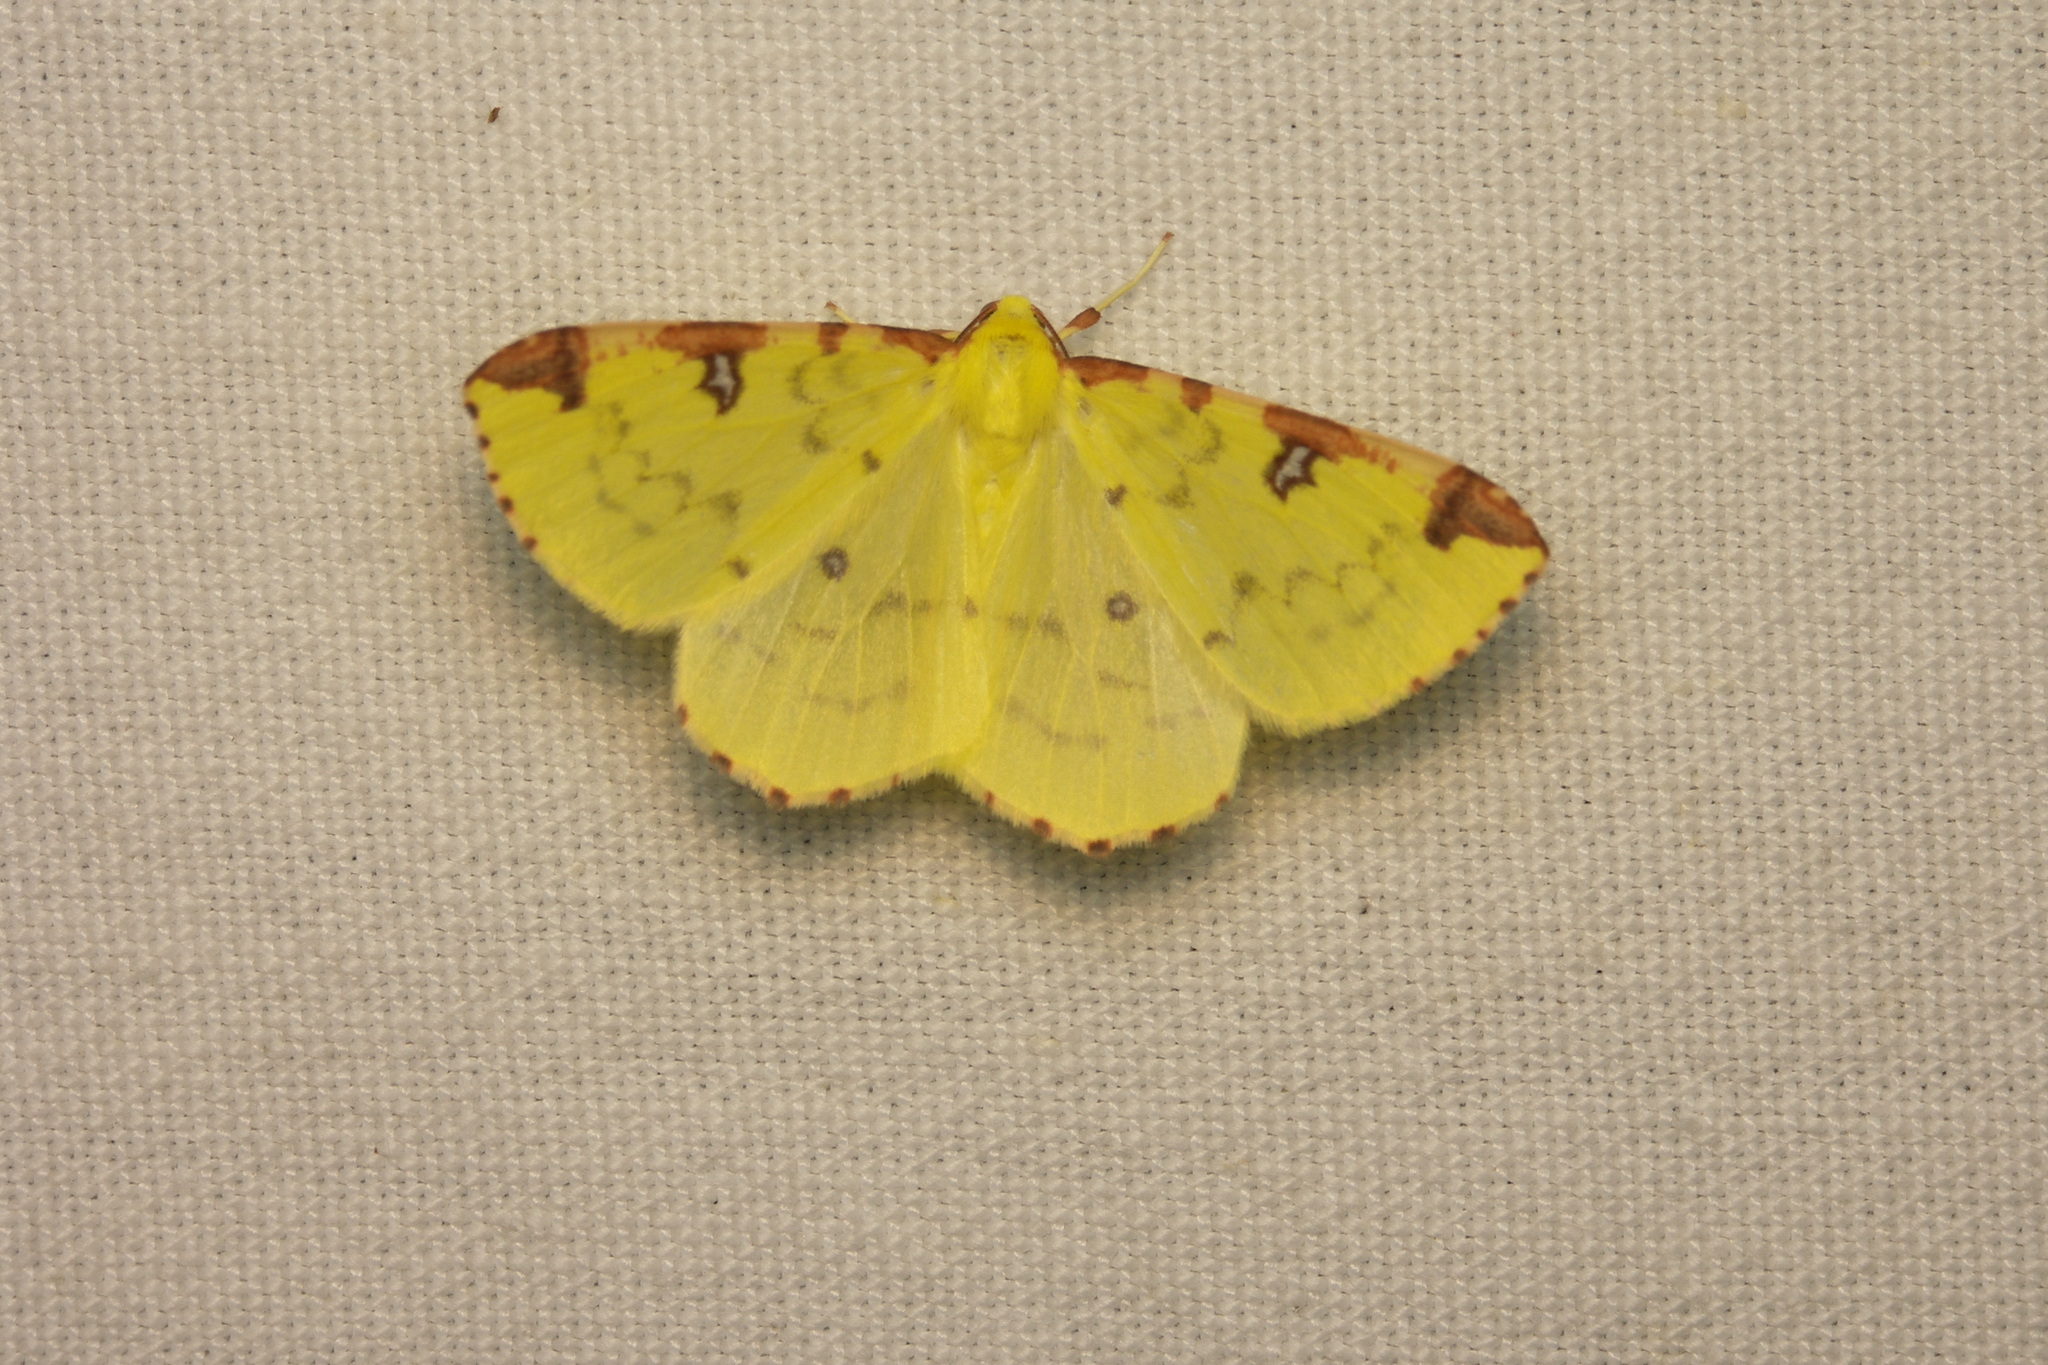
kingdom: Animalia
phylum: Arthropoda
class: Insecta
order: Lepidoptera
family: Geometridae
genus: Opisthograptis
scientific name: Opisthograptis luteolata
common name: Brimstone moth
